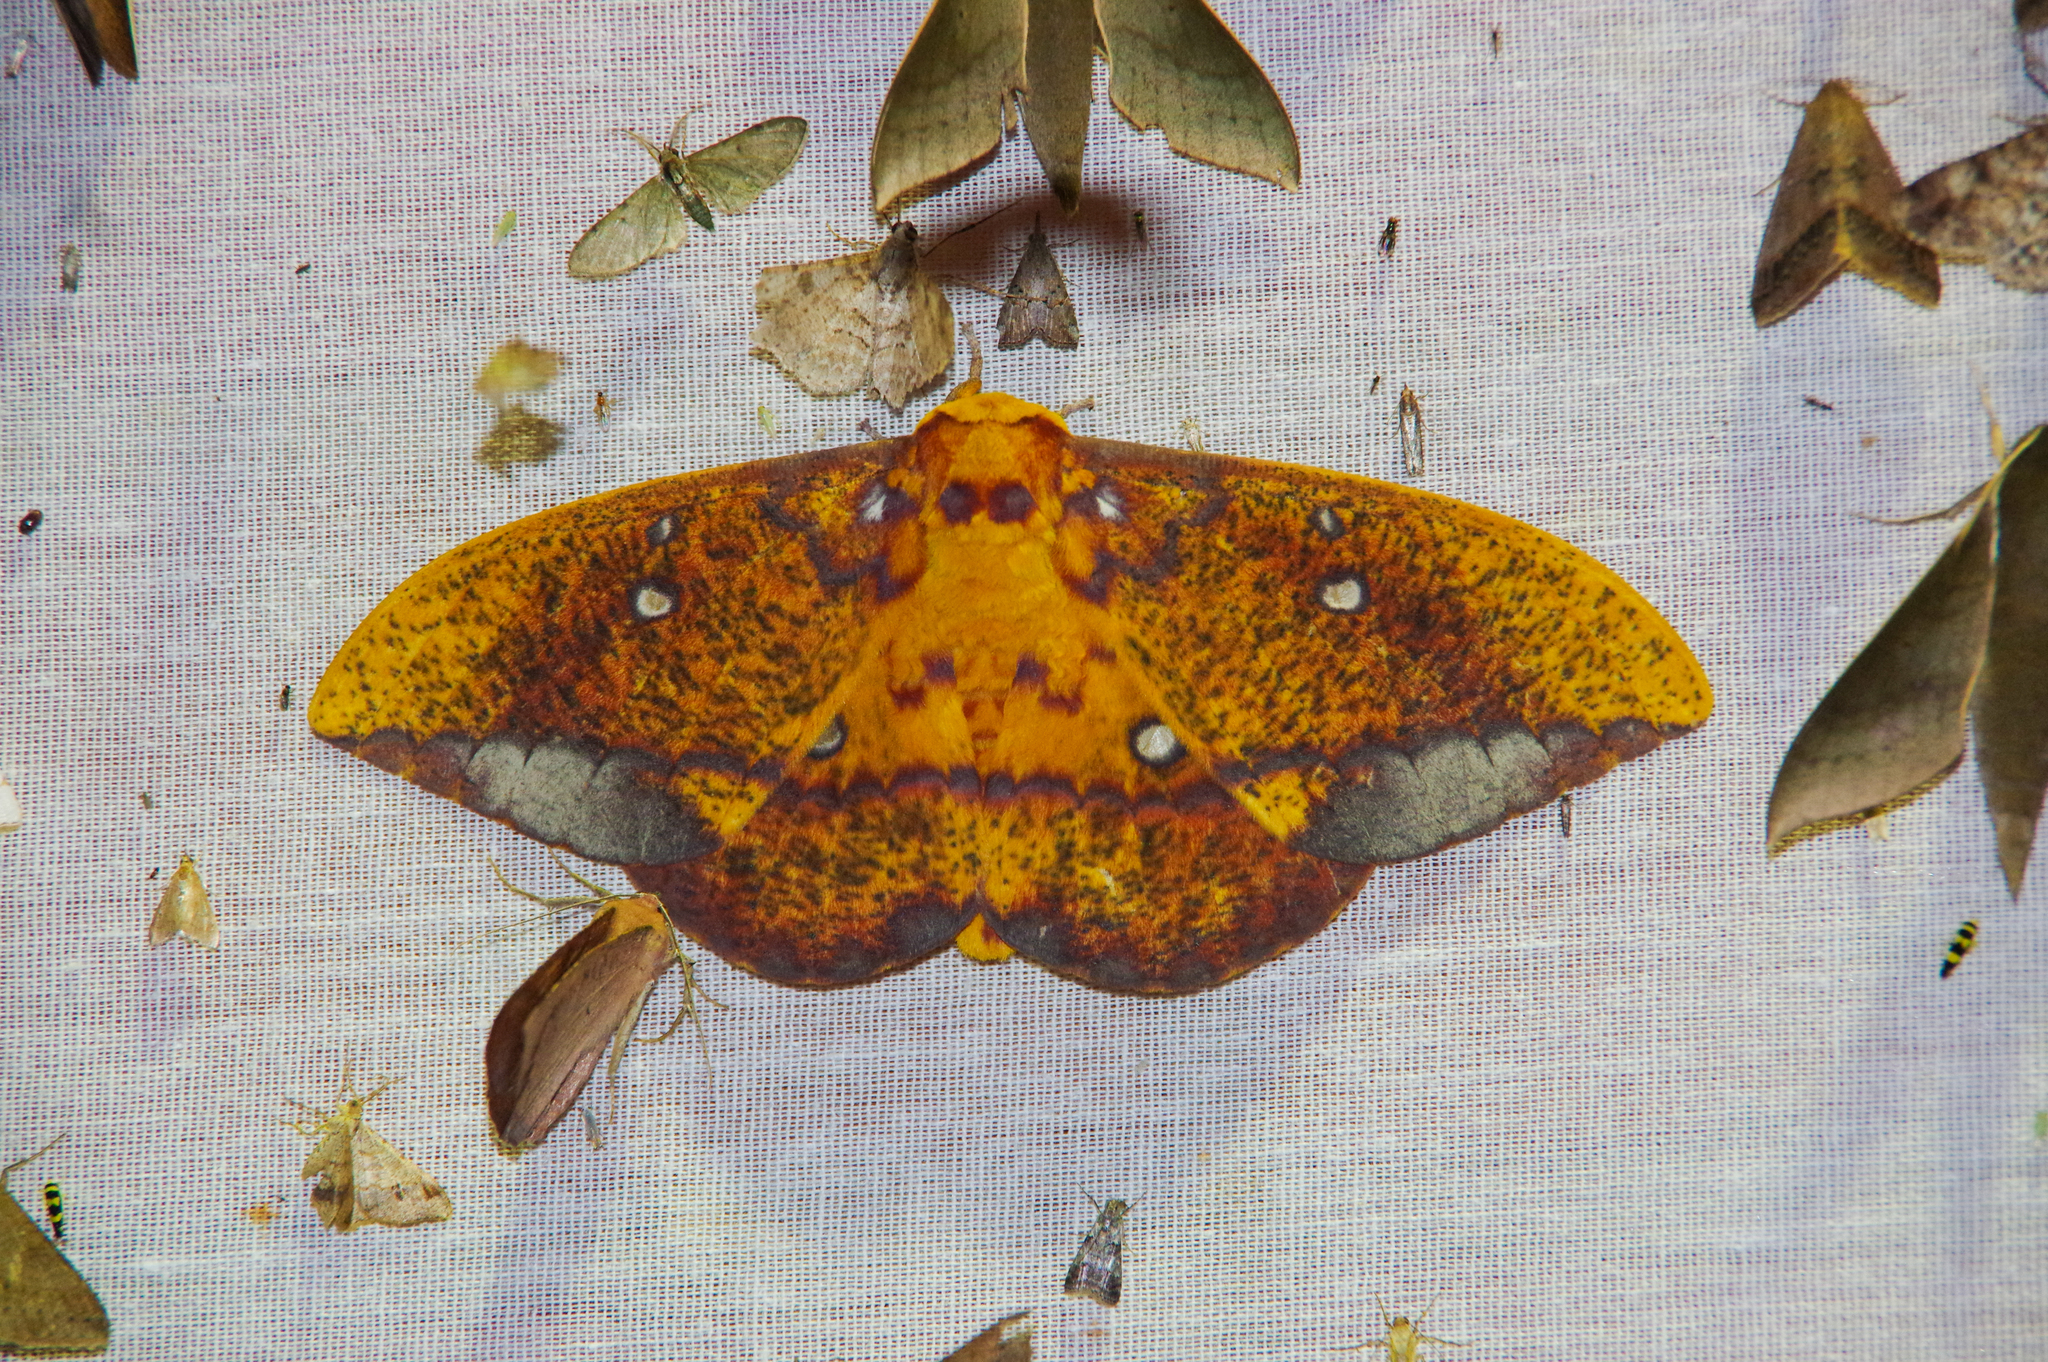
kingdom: Animalia
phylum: Arthropoda
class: Insecta
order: Lepidoptera
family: Saturniidae
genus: Eacles
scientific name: Eacles penelope
